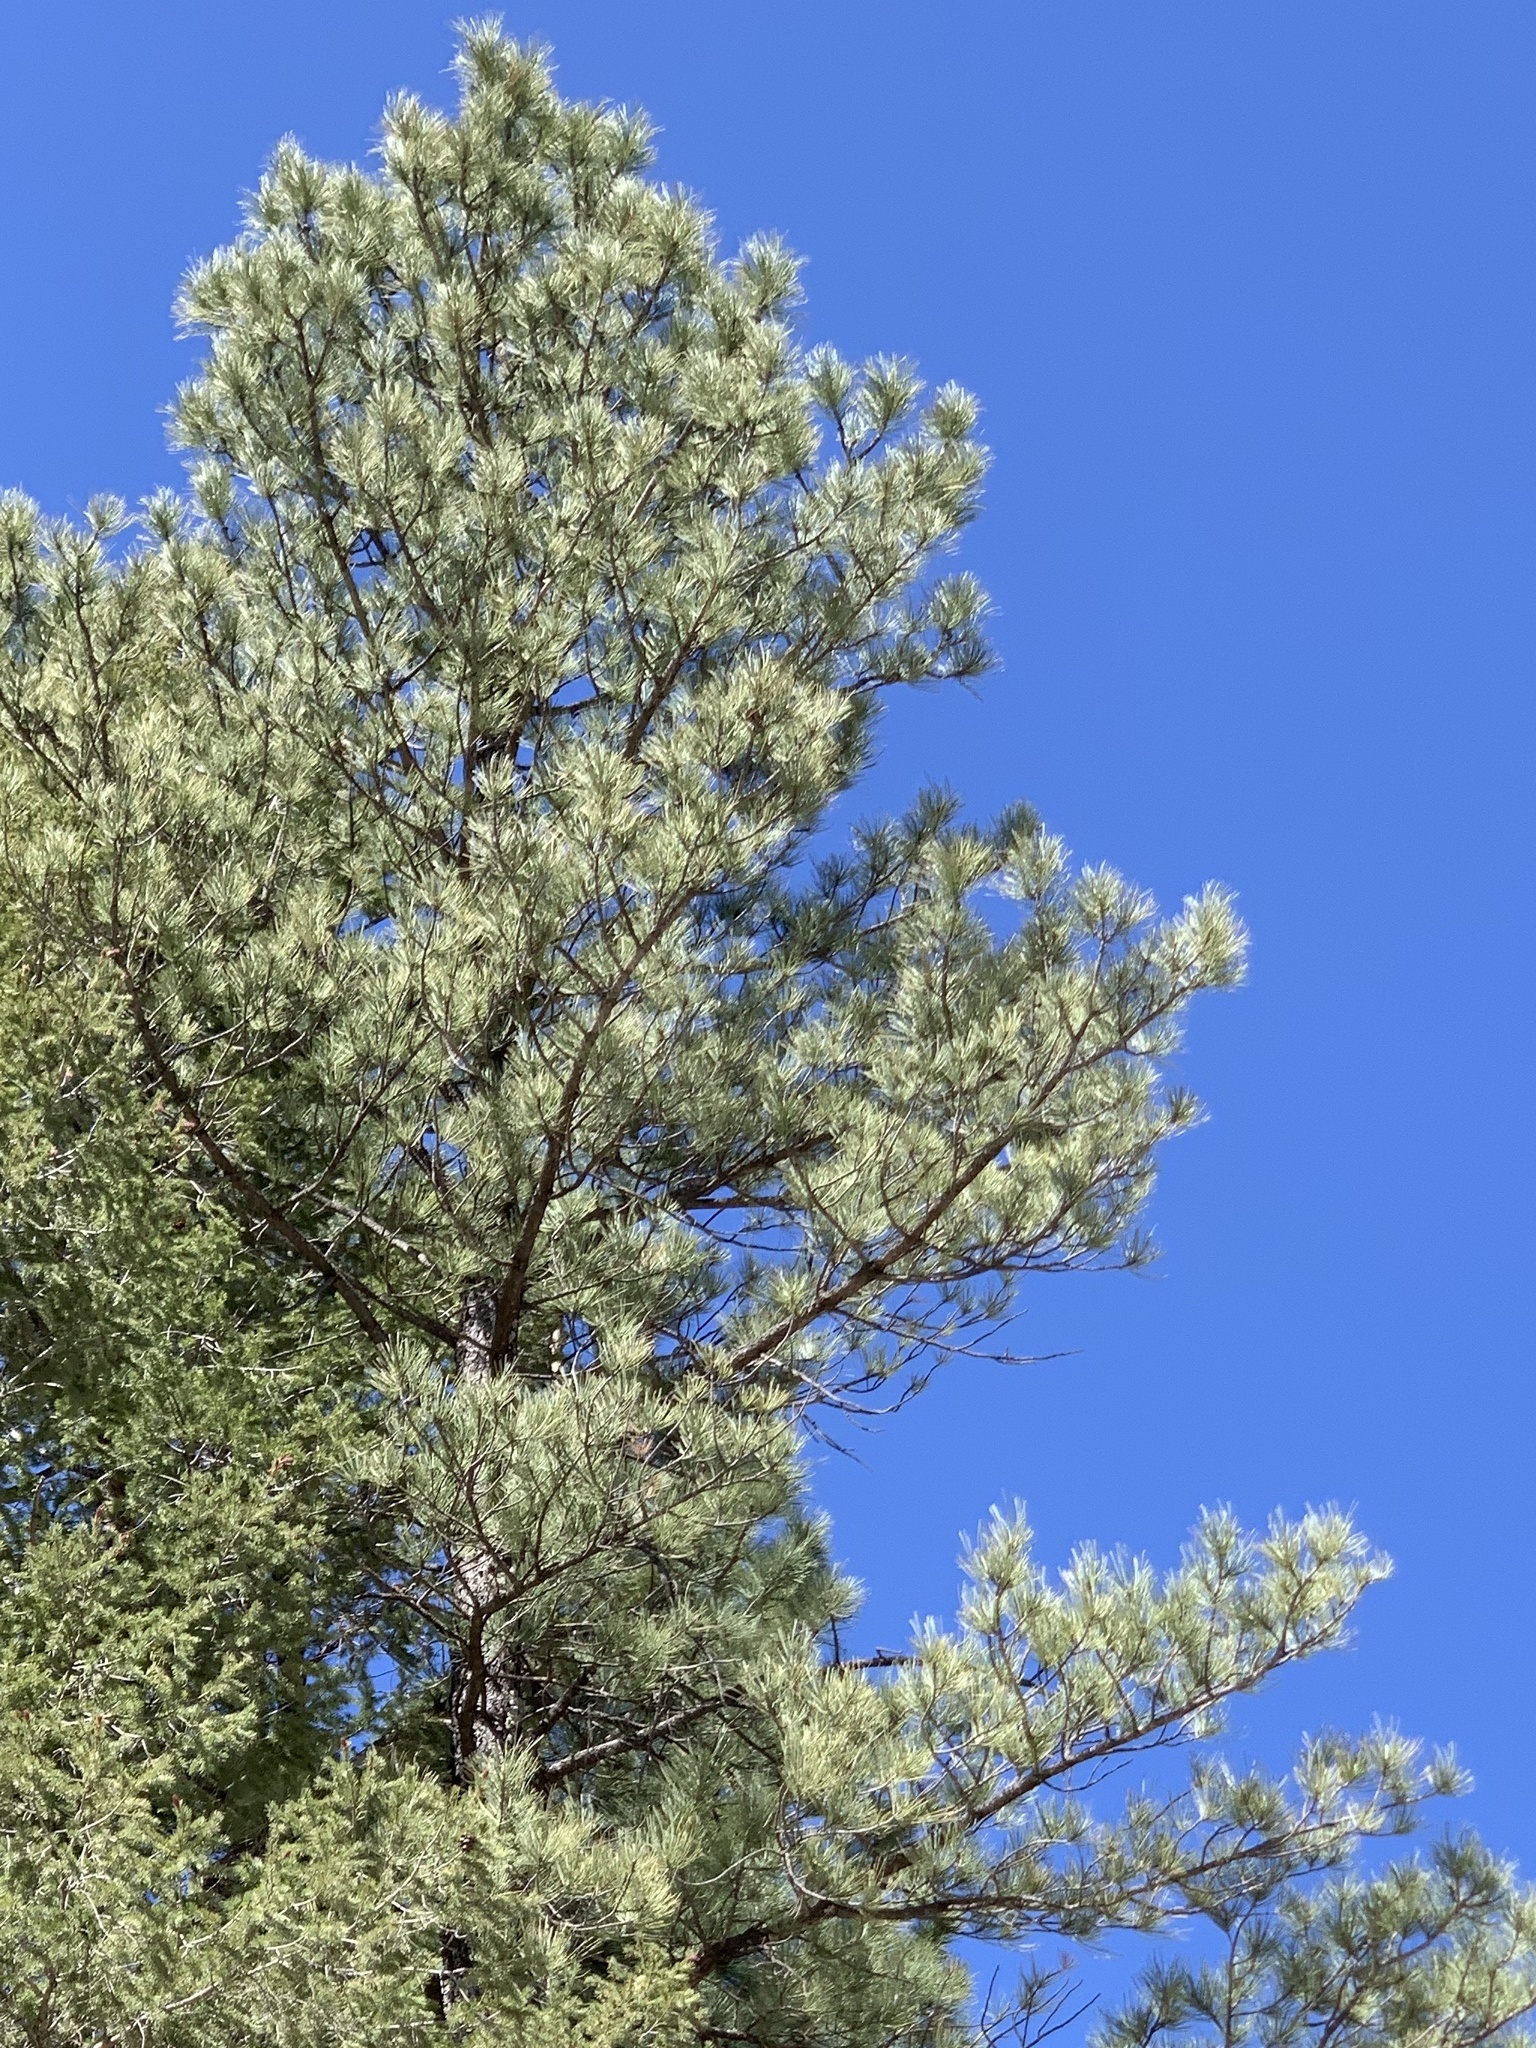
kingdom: Plantae
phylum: Tracheophyta
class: Pinopsida
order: Pinales
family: Pinaceae
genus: Pinus
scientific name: Pinus ponderosa
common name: Western yellow-pine
